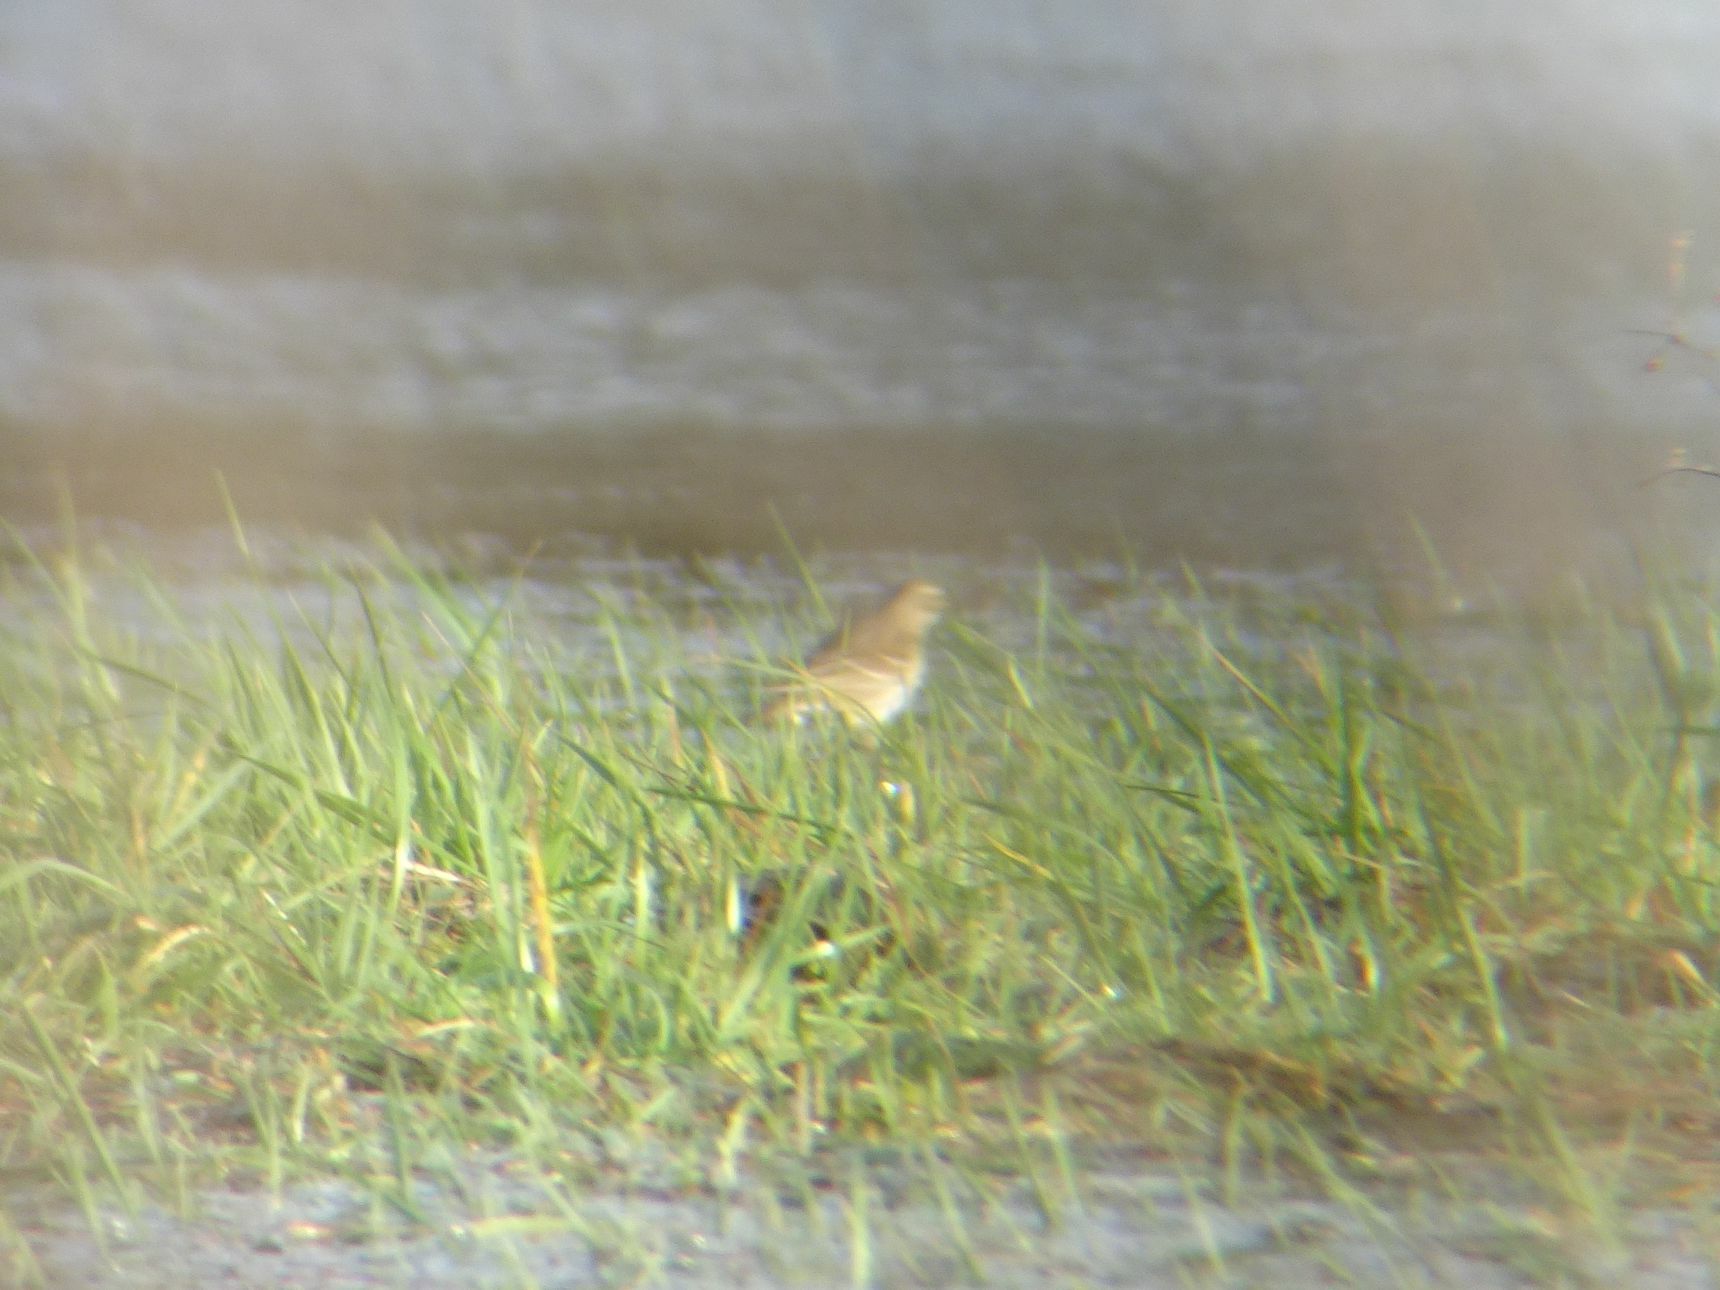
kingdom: Animalia
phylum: Chordata
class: Aves
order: Passeriformes
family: Motacillidae
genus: Anthus
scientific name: Anthus spinoletta
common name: Water pipit
